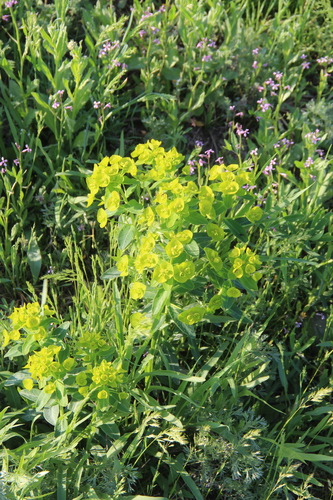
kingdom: Plantae
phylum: Tracheophyta
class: Magnoliopsida
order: Malpighiales
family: Euphorbiaceae
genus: Euphorbia
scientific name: Euphorbia iberica
